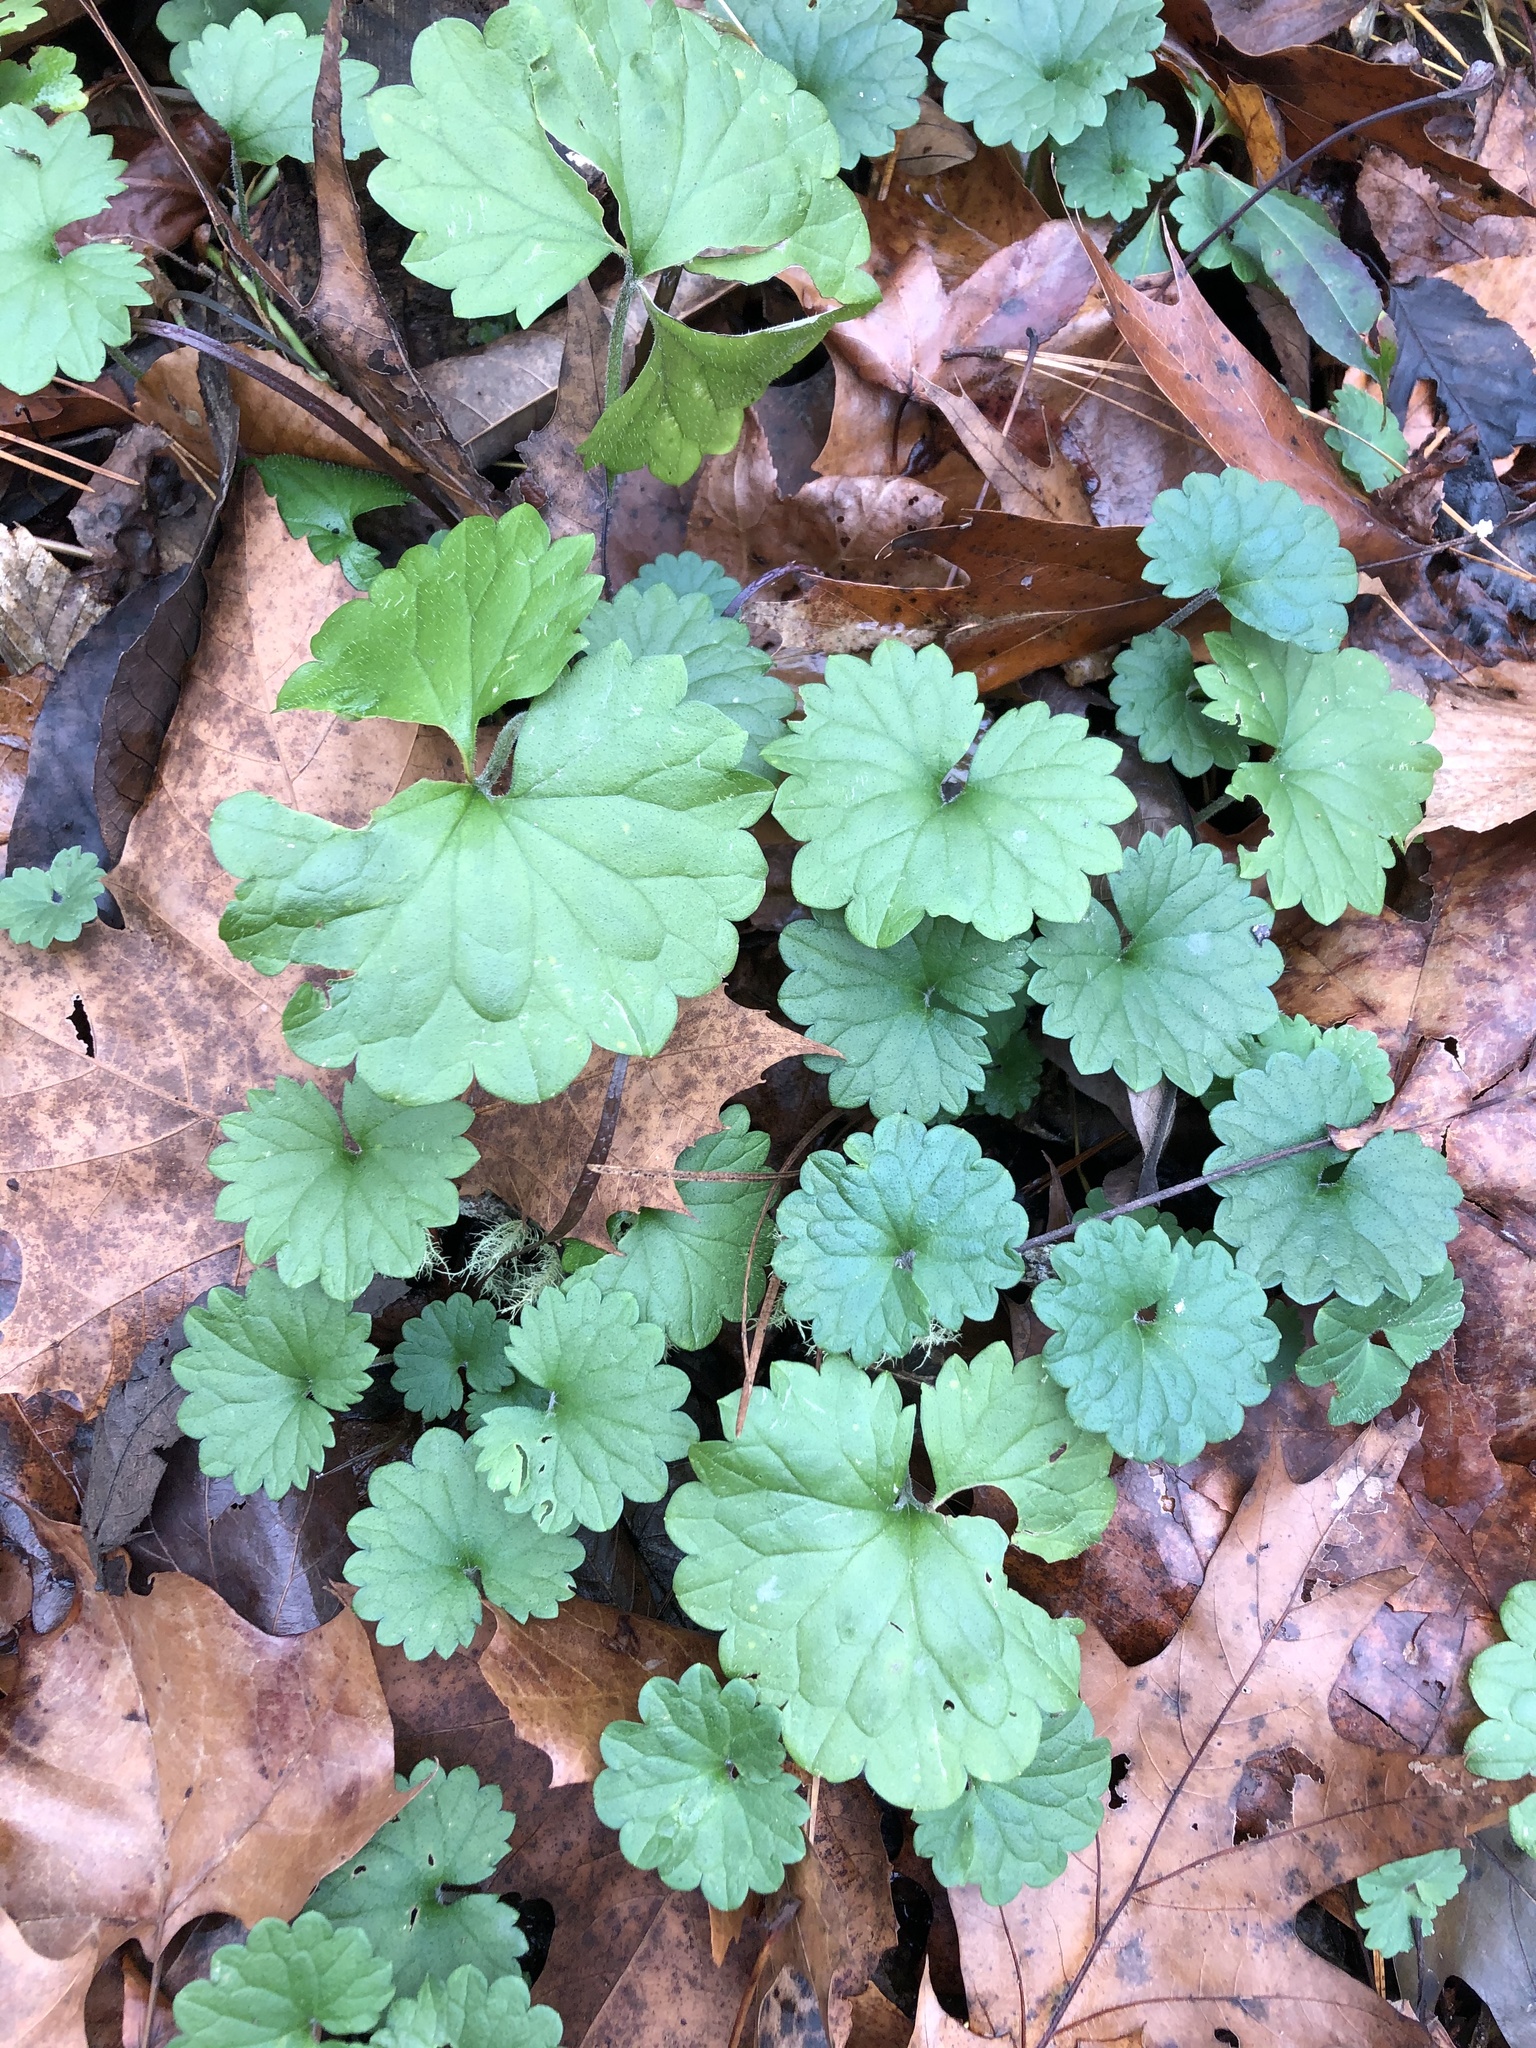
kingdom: Plantae
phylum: Tracheophyta
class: Magnoliopsida
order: Lamiales
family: Lamiaceae
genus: Glechoma
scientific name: Glechoma hederacea
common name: Ground ivy
